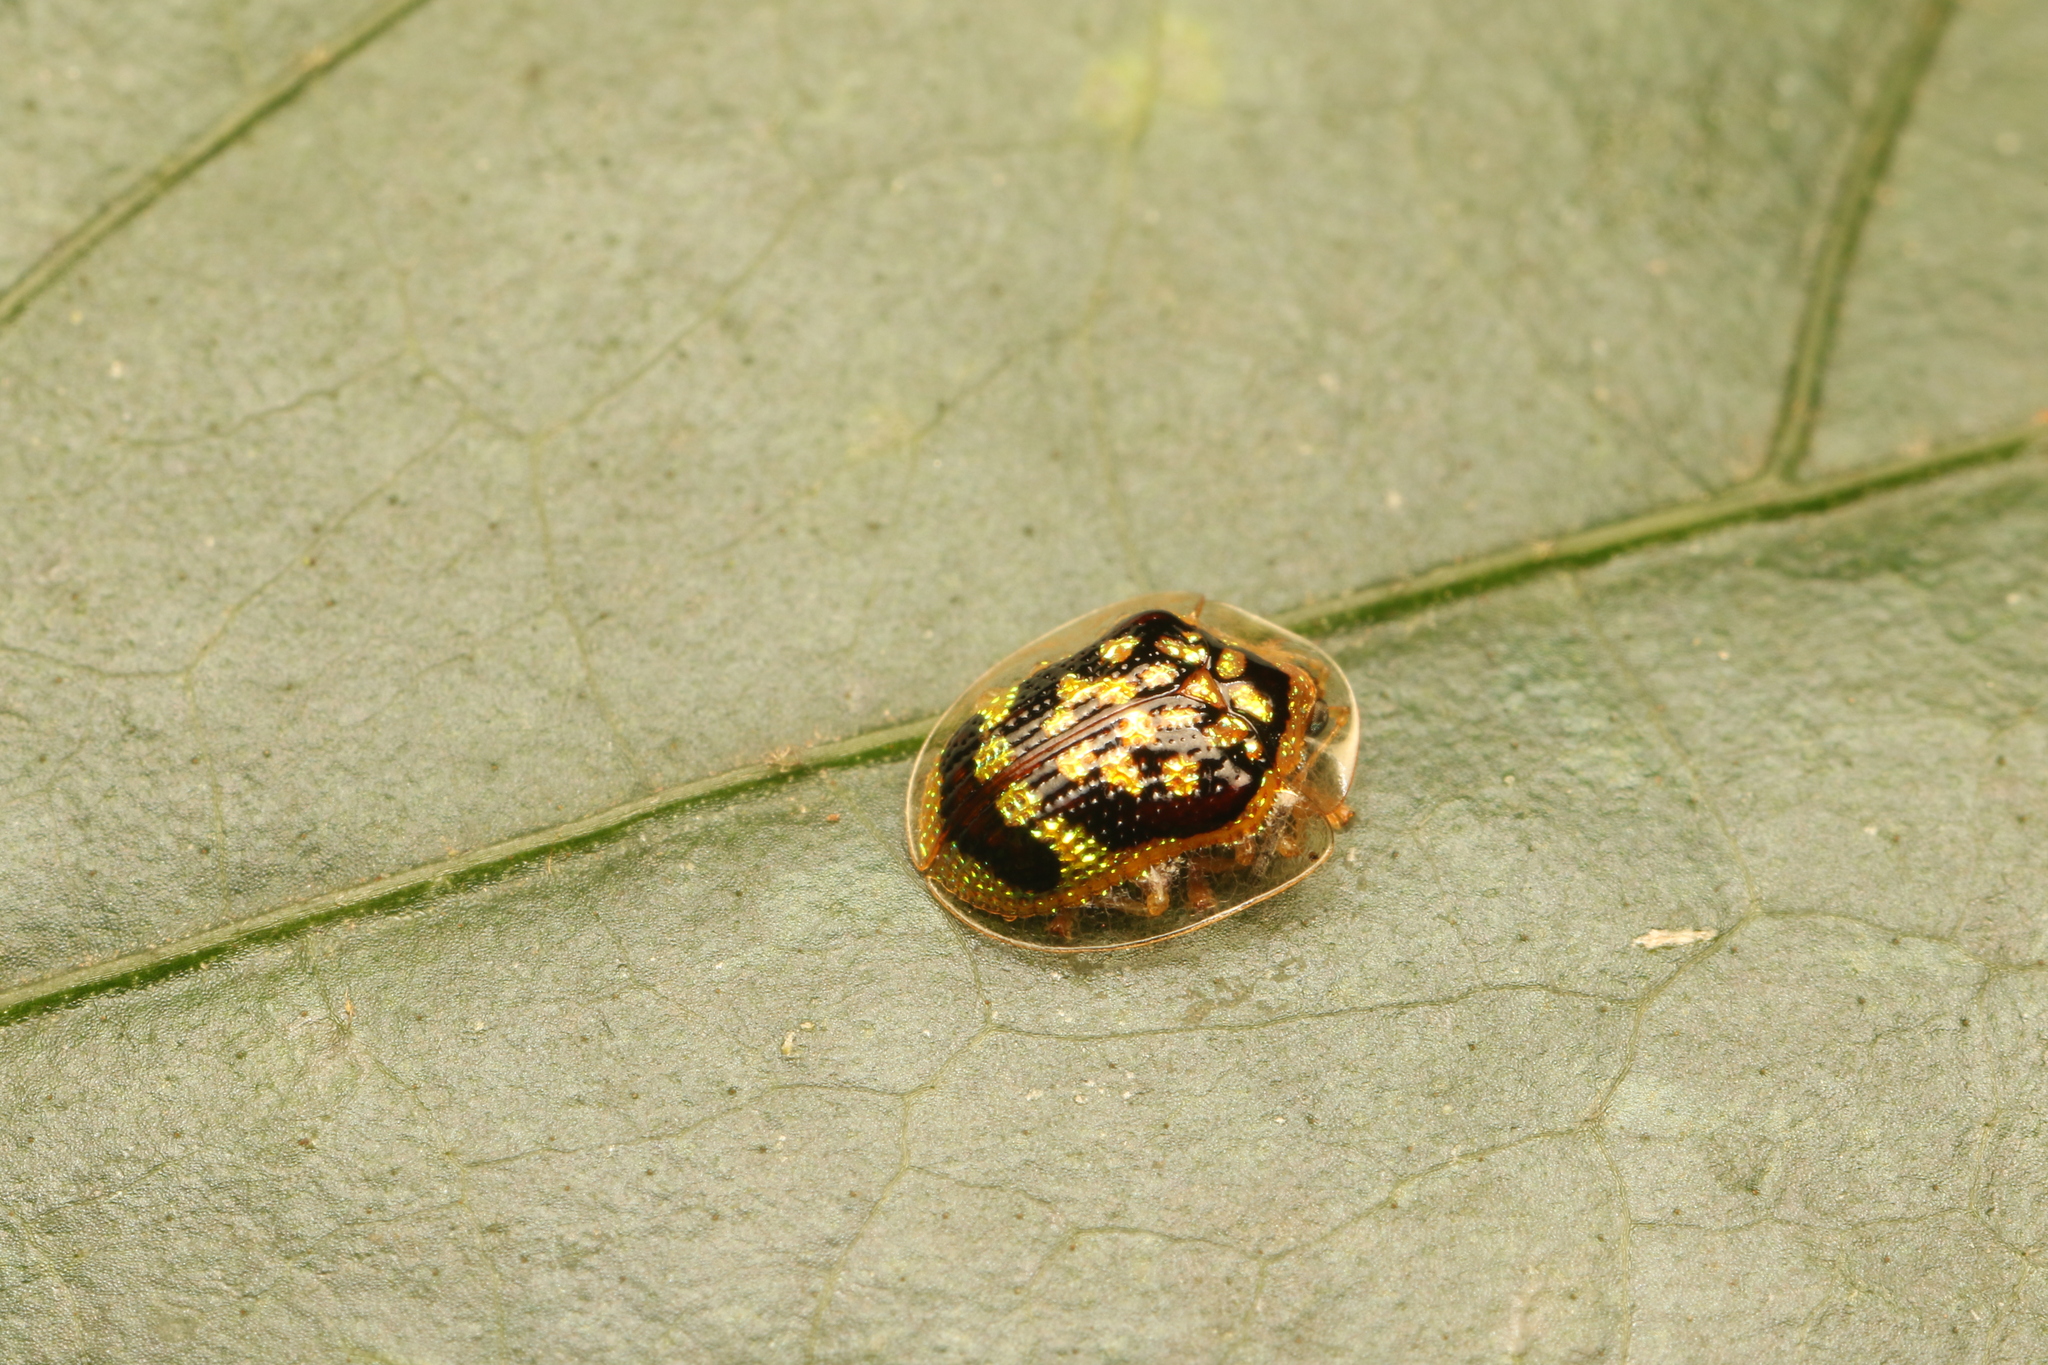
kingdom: Animalia
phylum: Arthropoda
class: Insecta
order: Coleoptera
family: Chrysomelidae
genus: Microctenochira
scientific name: Microctenochira brasiliensis
